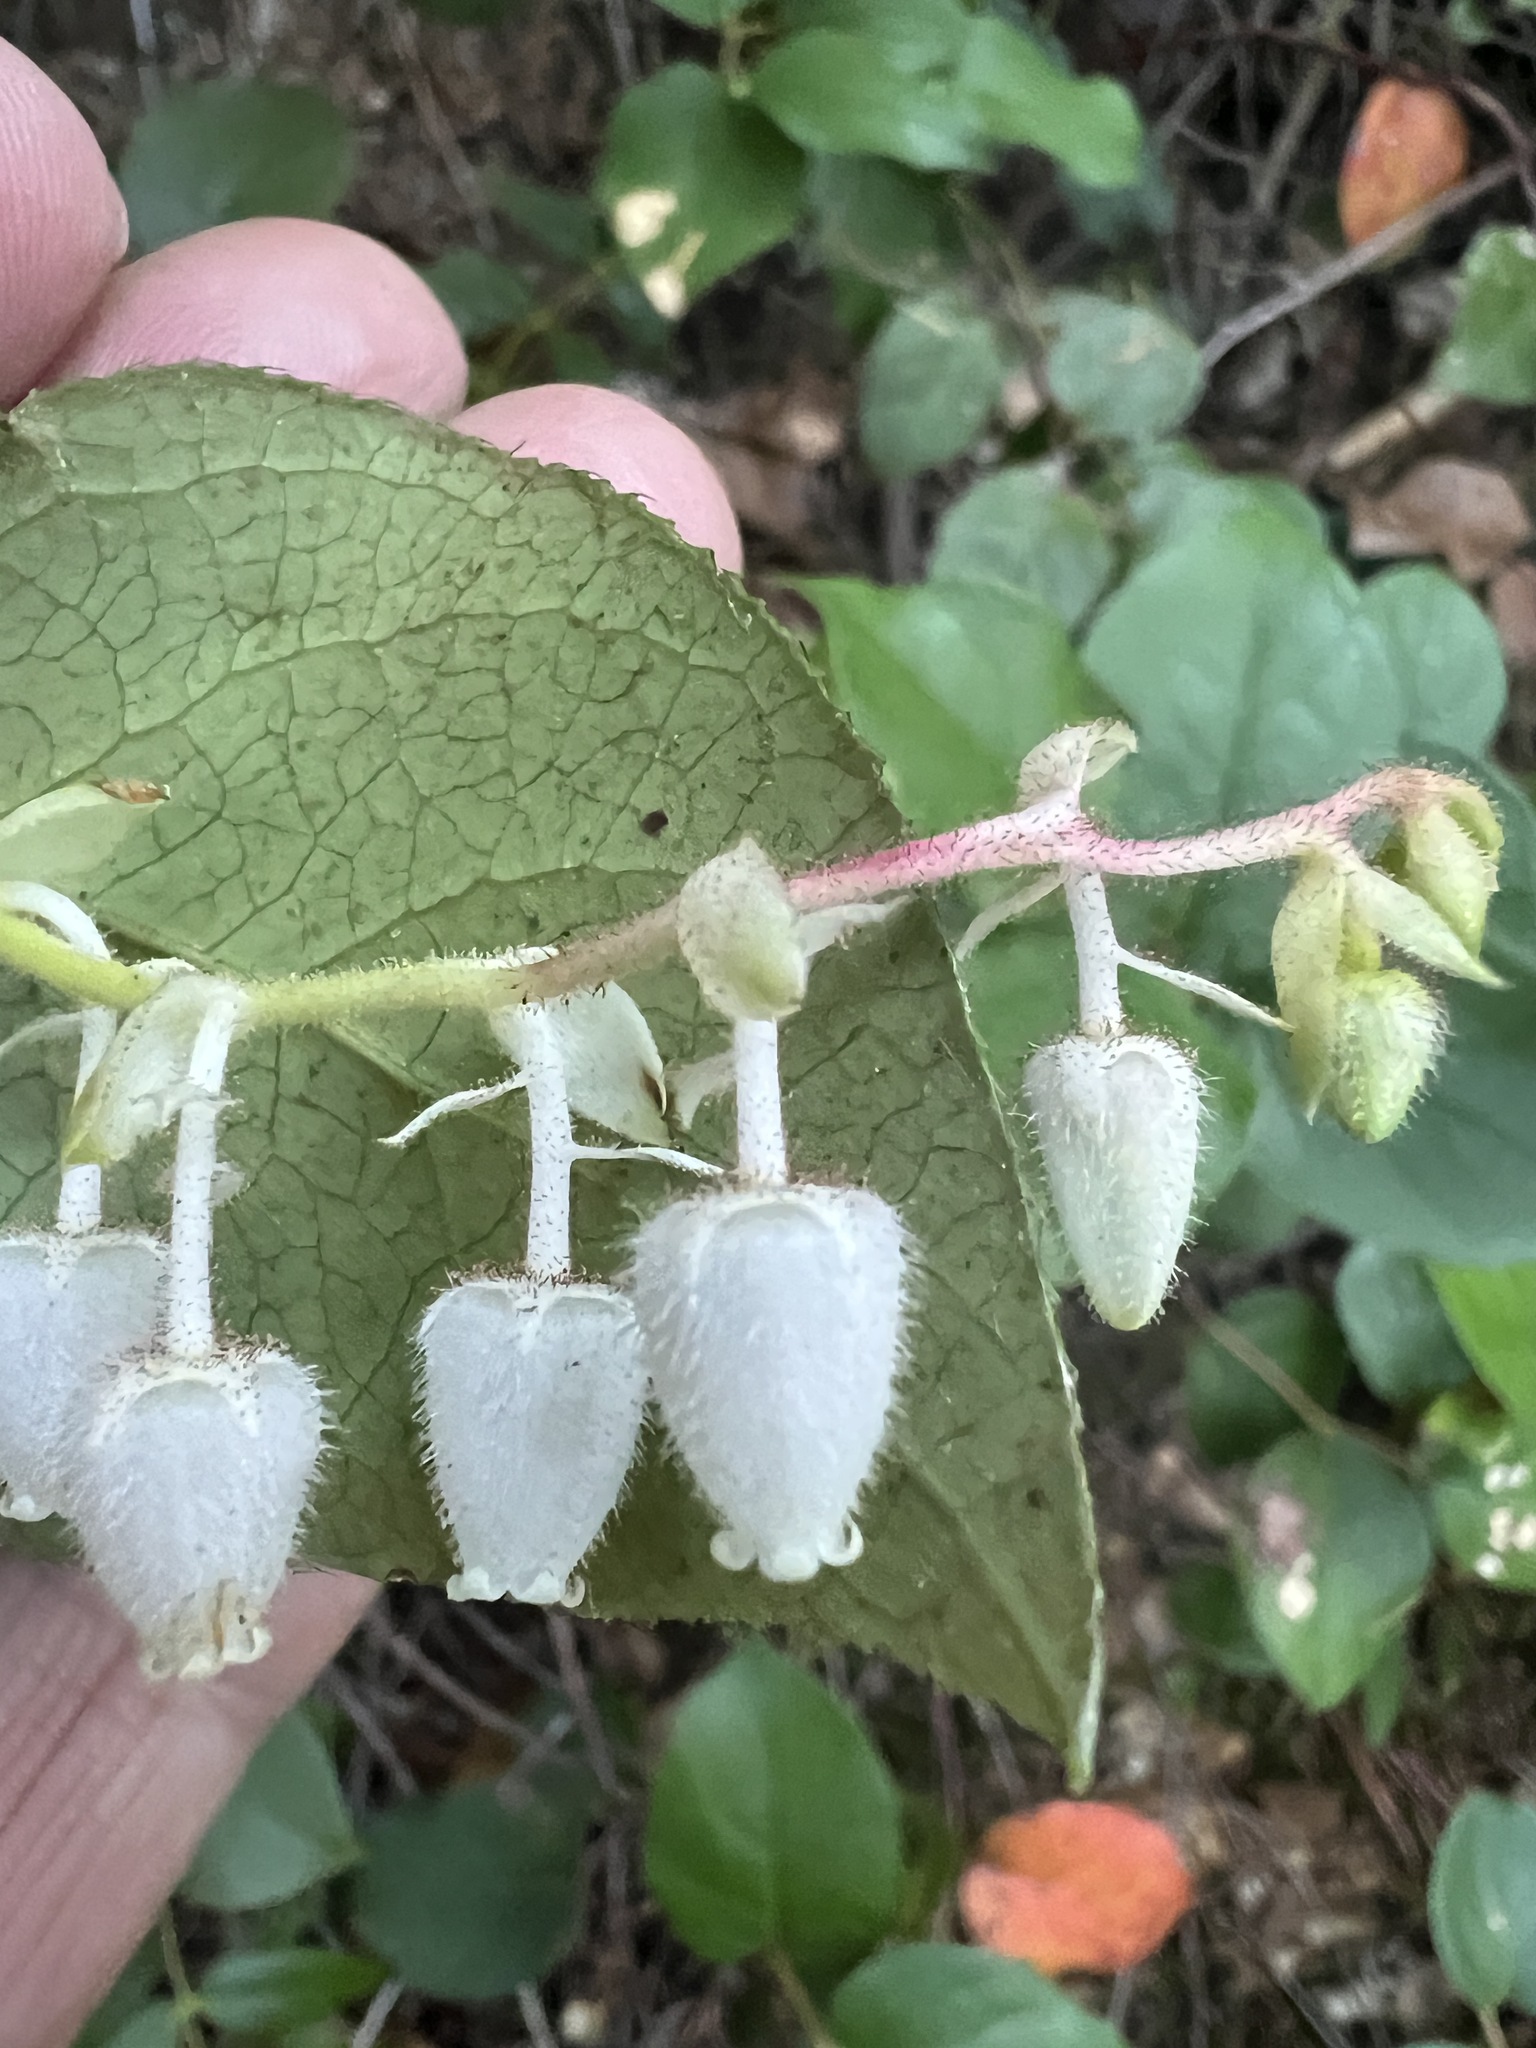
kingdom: Plantae
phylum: Tracheophyta
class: Magnoliopsida
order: Ericales
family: Ericaceae
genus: Gaultheria
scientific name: Gaultheria shallon
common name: Shallon
